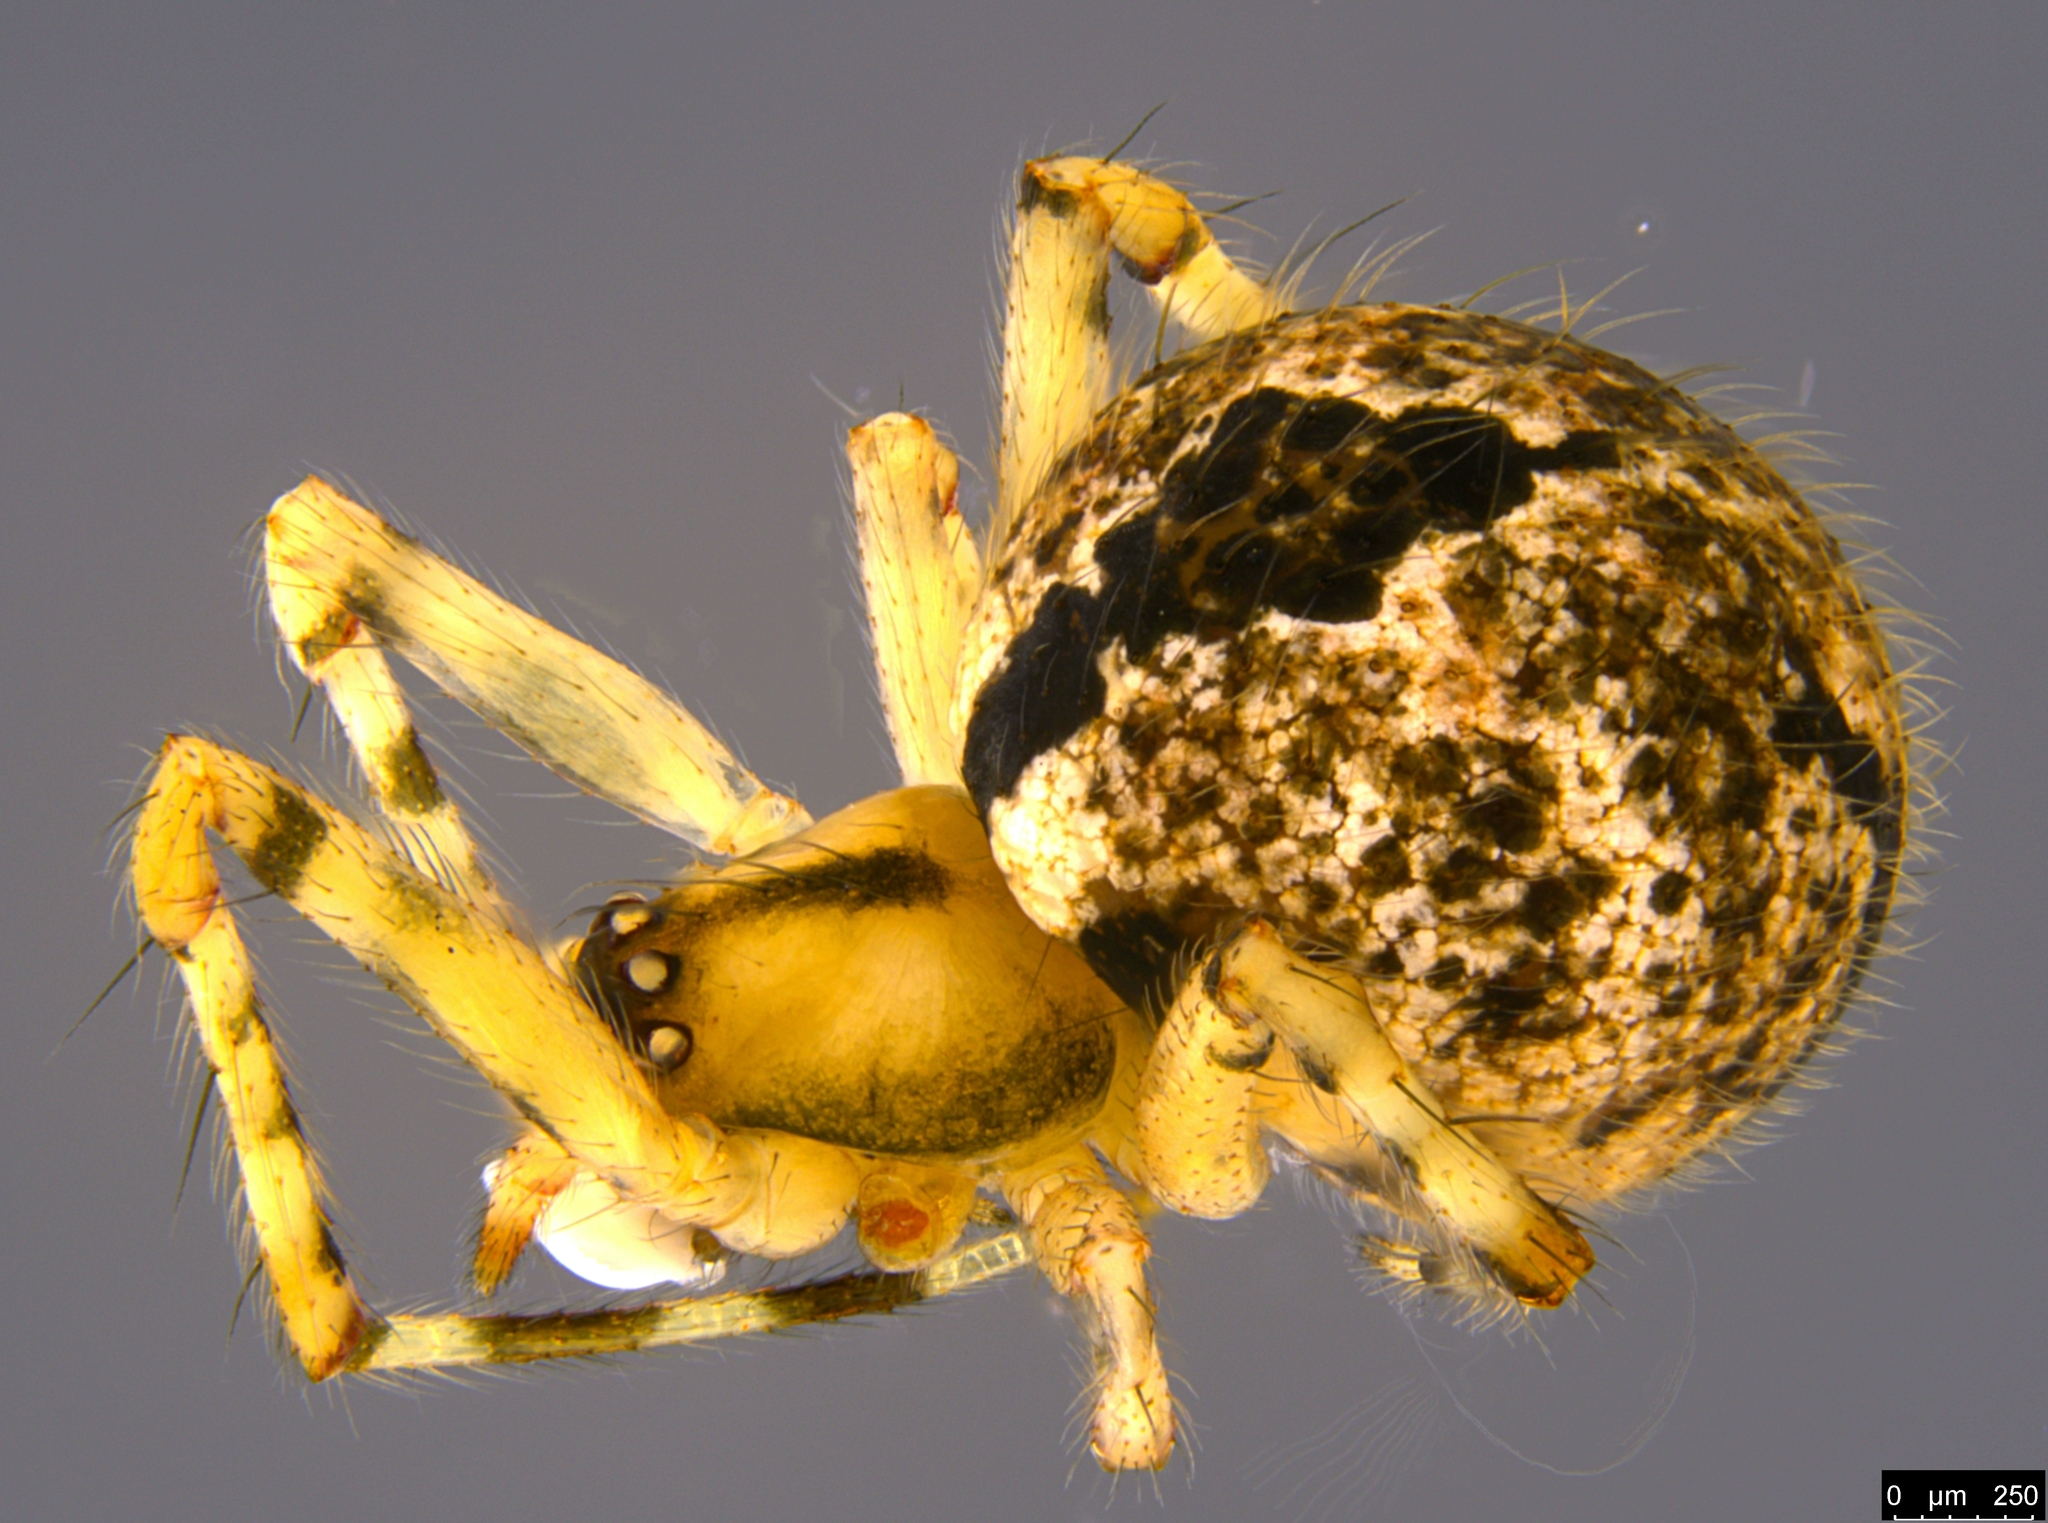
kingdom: Animalia
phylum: Arthropoda
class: Arachnida
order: Araneae
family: Theridiidae
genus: Cryptachaea
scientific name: Cryptachaea veruculata
